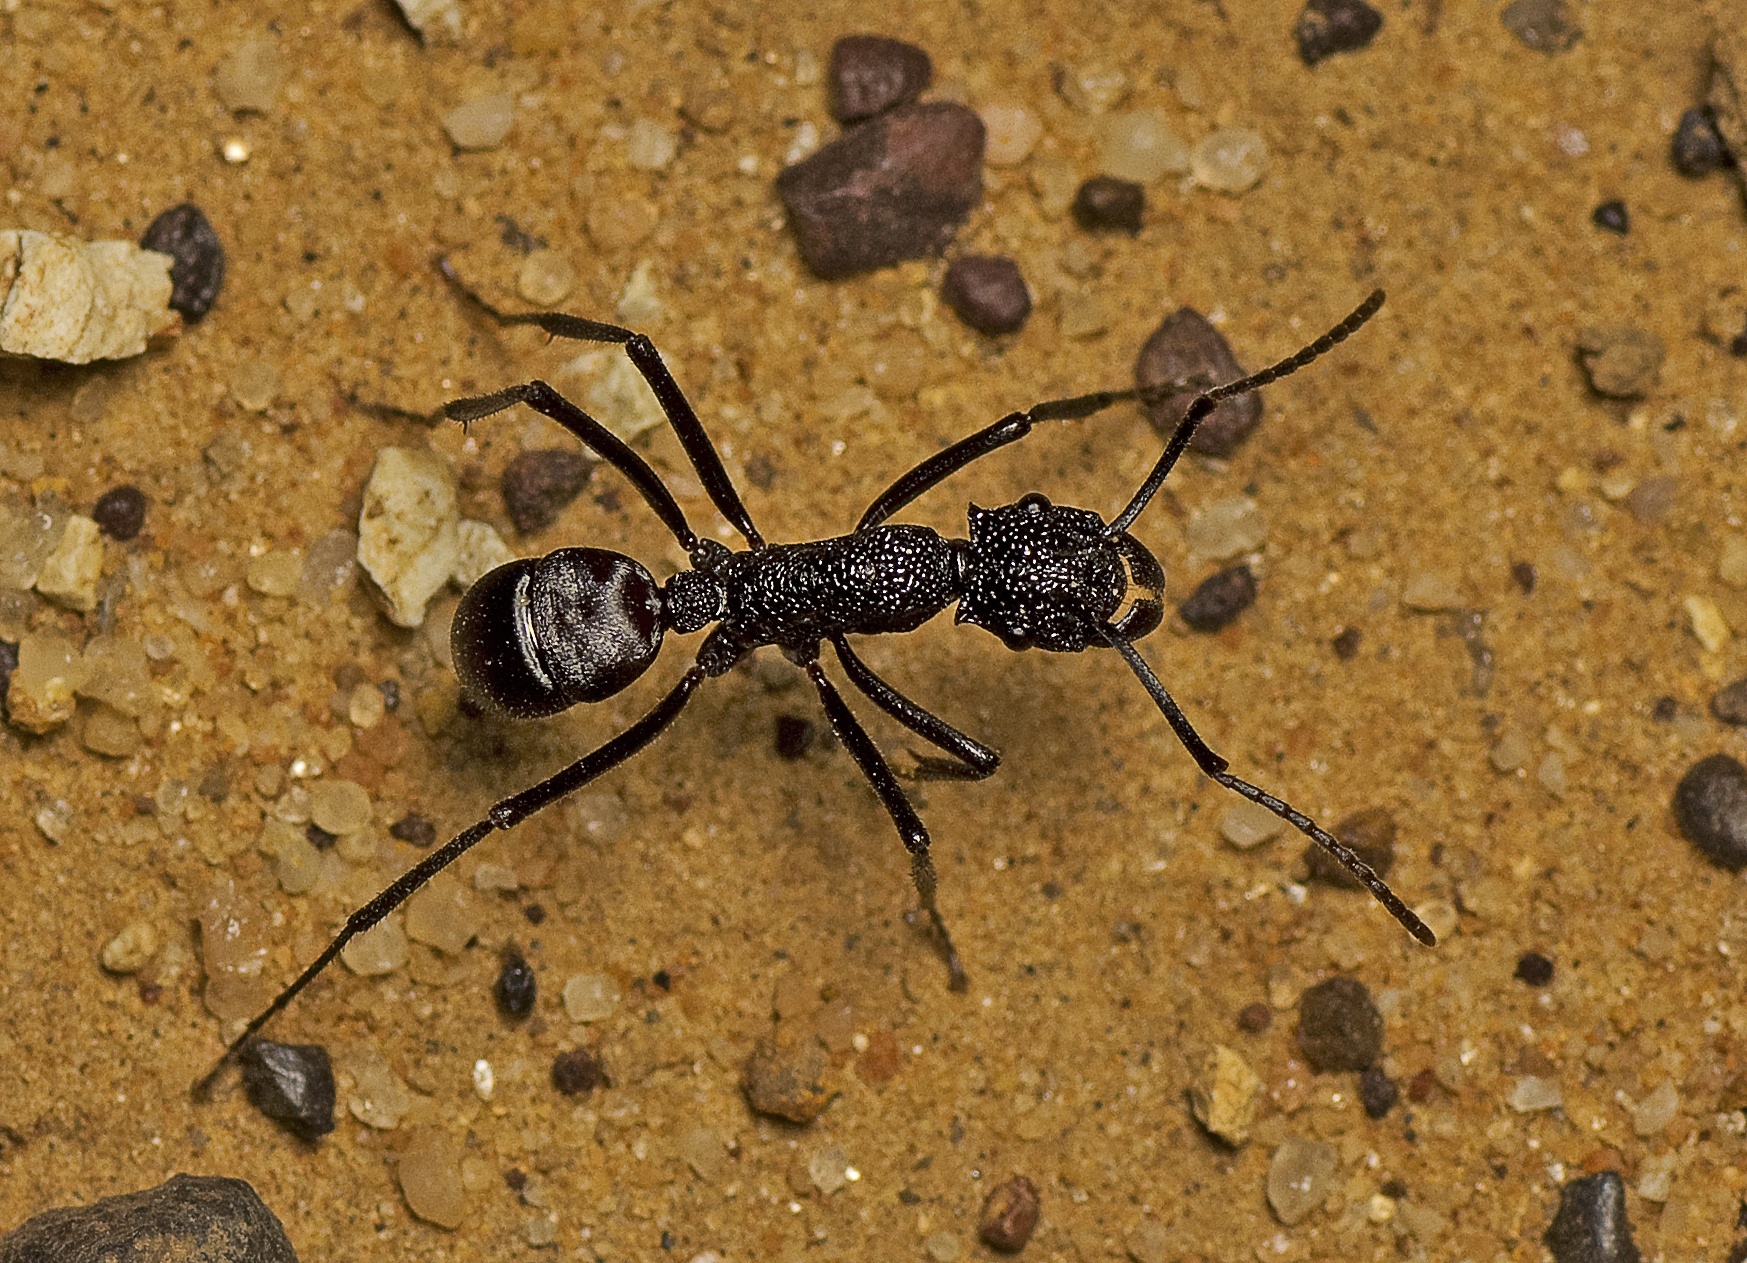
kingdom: Animalia
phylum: Arthropoda
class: Insecta
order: Hymenoptera
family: Formicidae
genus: Rhytidoponera
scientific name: Rhytidoponera taurus
